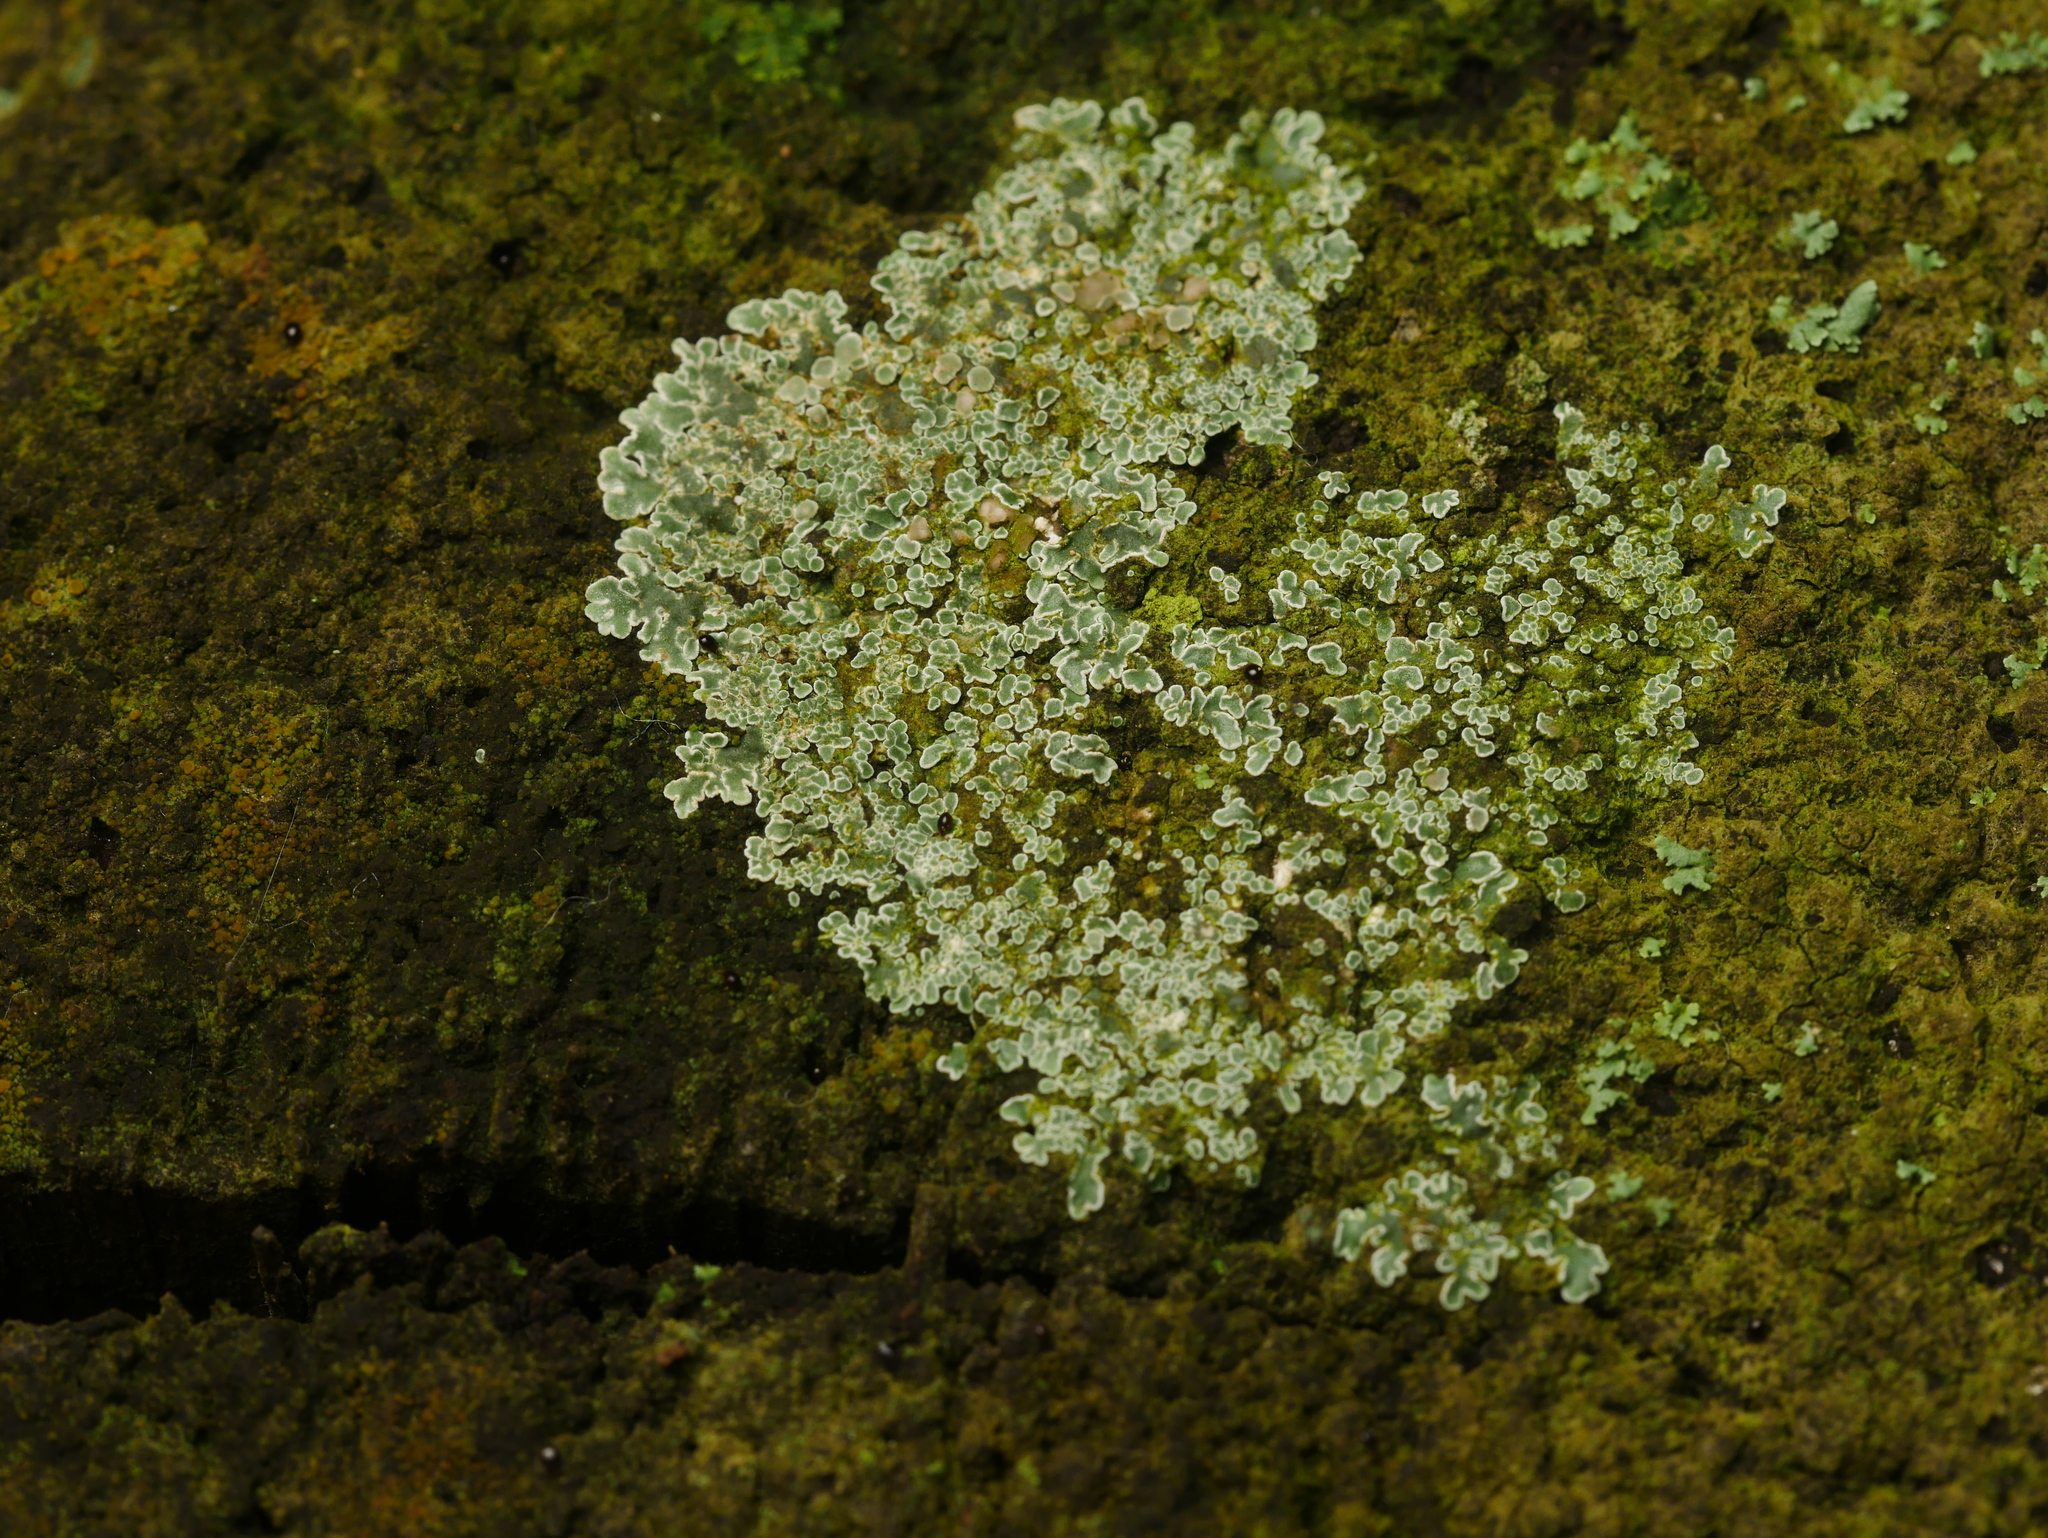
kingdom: Fungi
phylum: Ascomycota
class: Lecanoromycetes
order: Lecanorales
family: Lecanoraceae
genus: Protoparmeliopsis
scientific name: Protoparmeliopsis muralis
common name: Stonewall rim lichen
